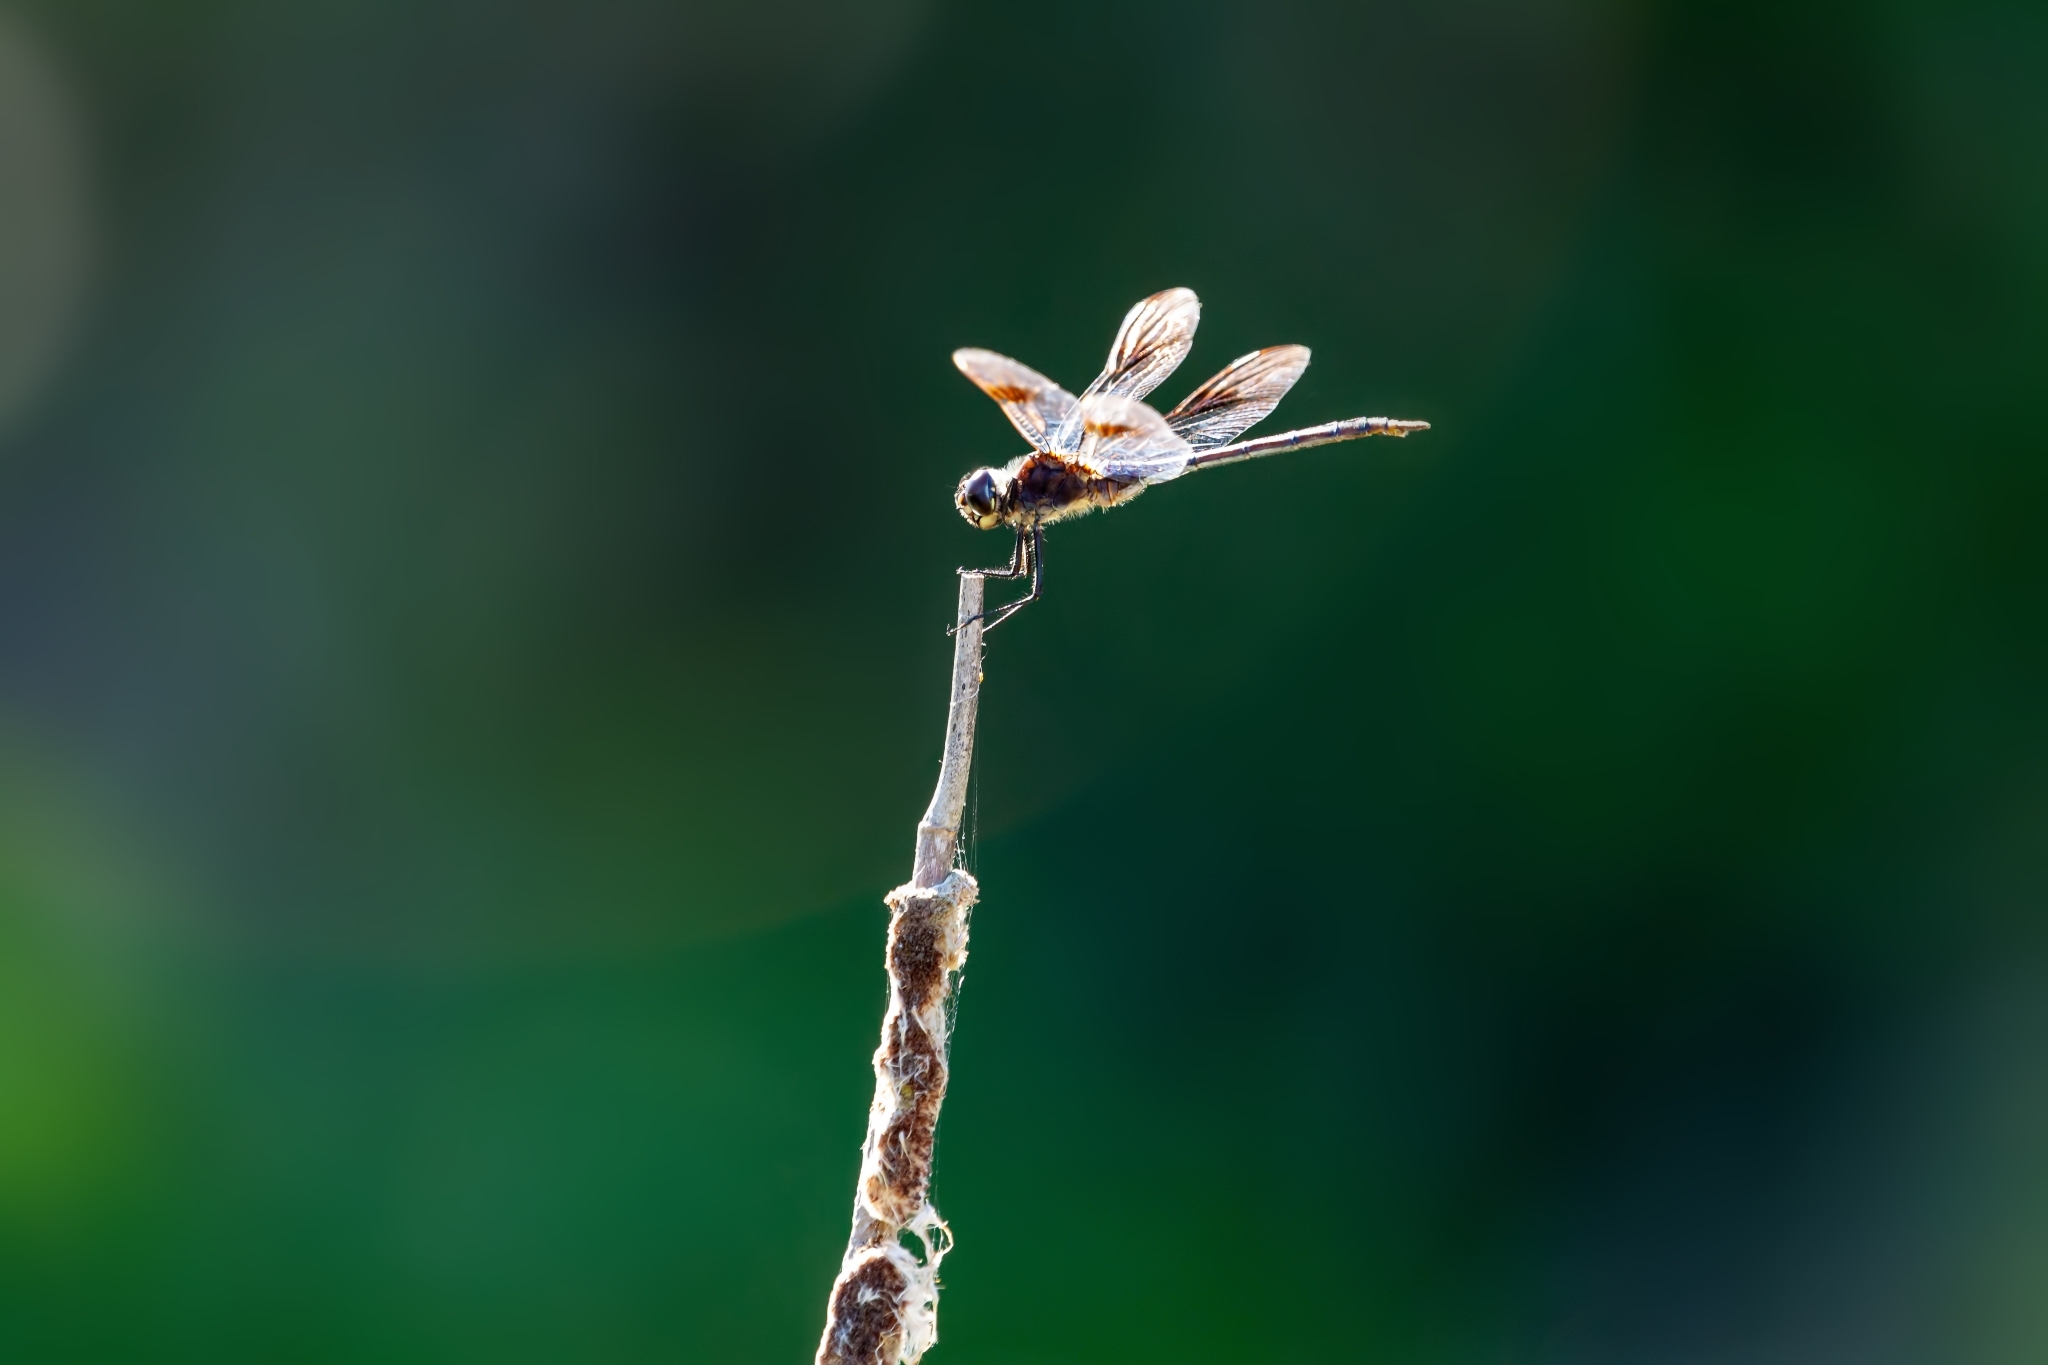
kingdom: Animalia
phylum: Arthropoda
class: Insecta
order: Odonata
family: Libellulidae
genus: Brachymesia
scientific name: Brachymesia gravida
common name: Four-spotted pennant
